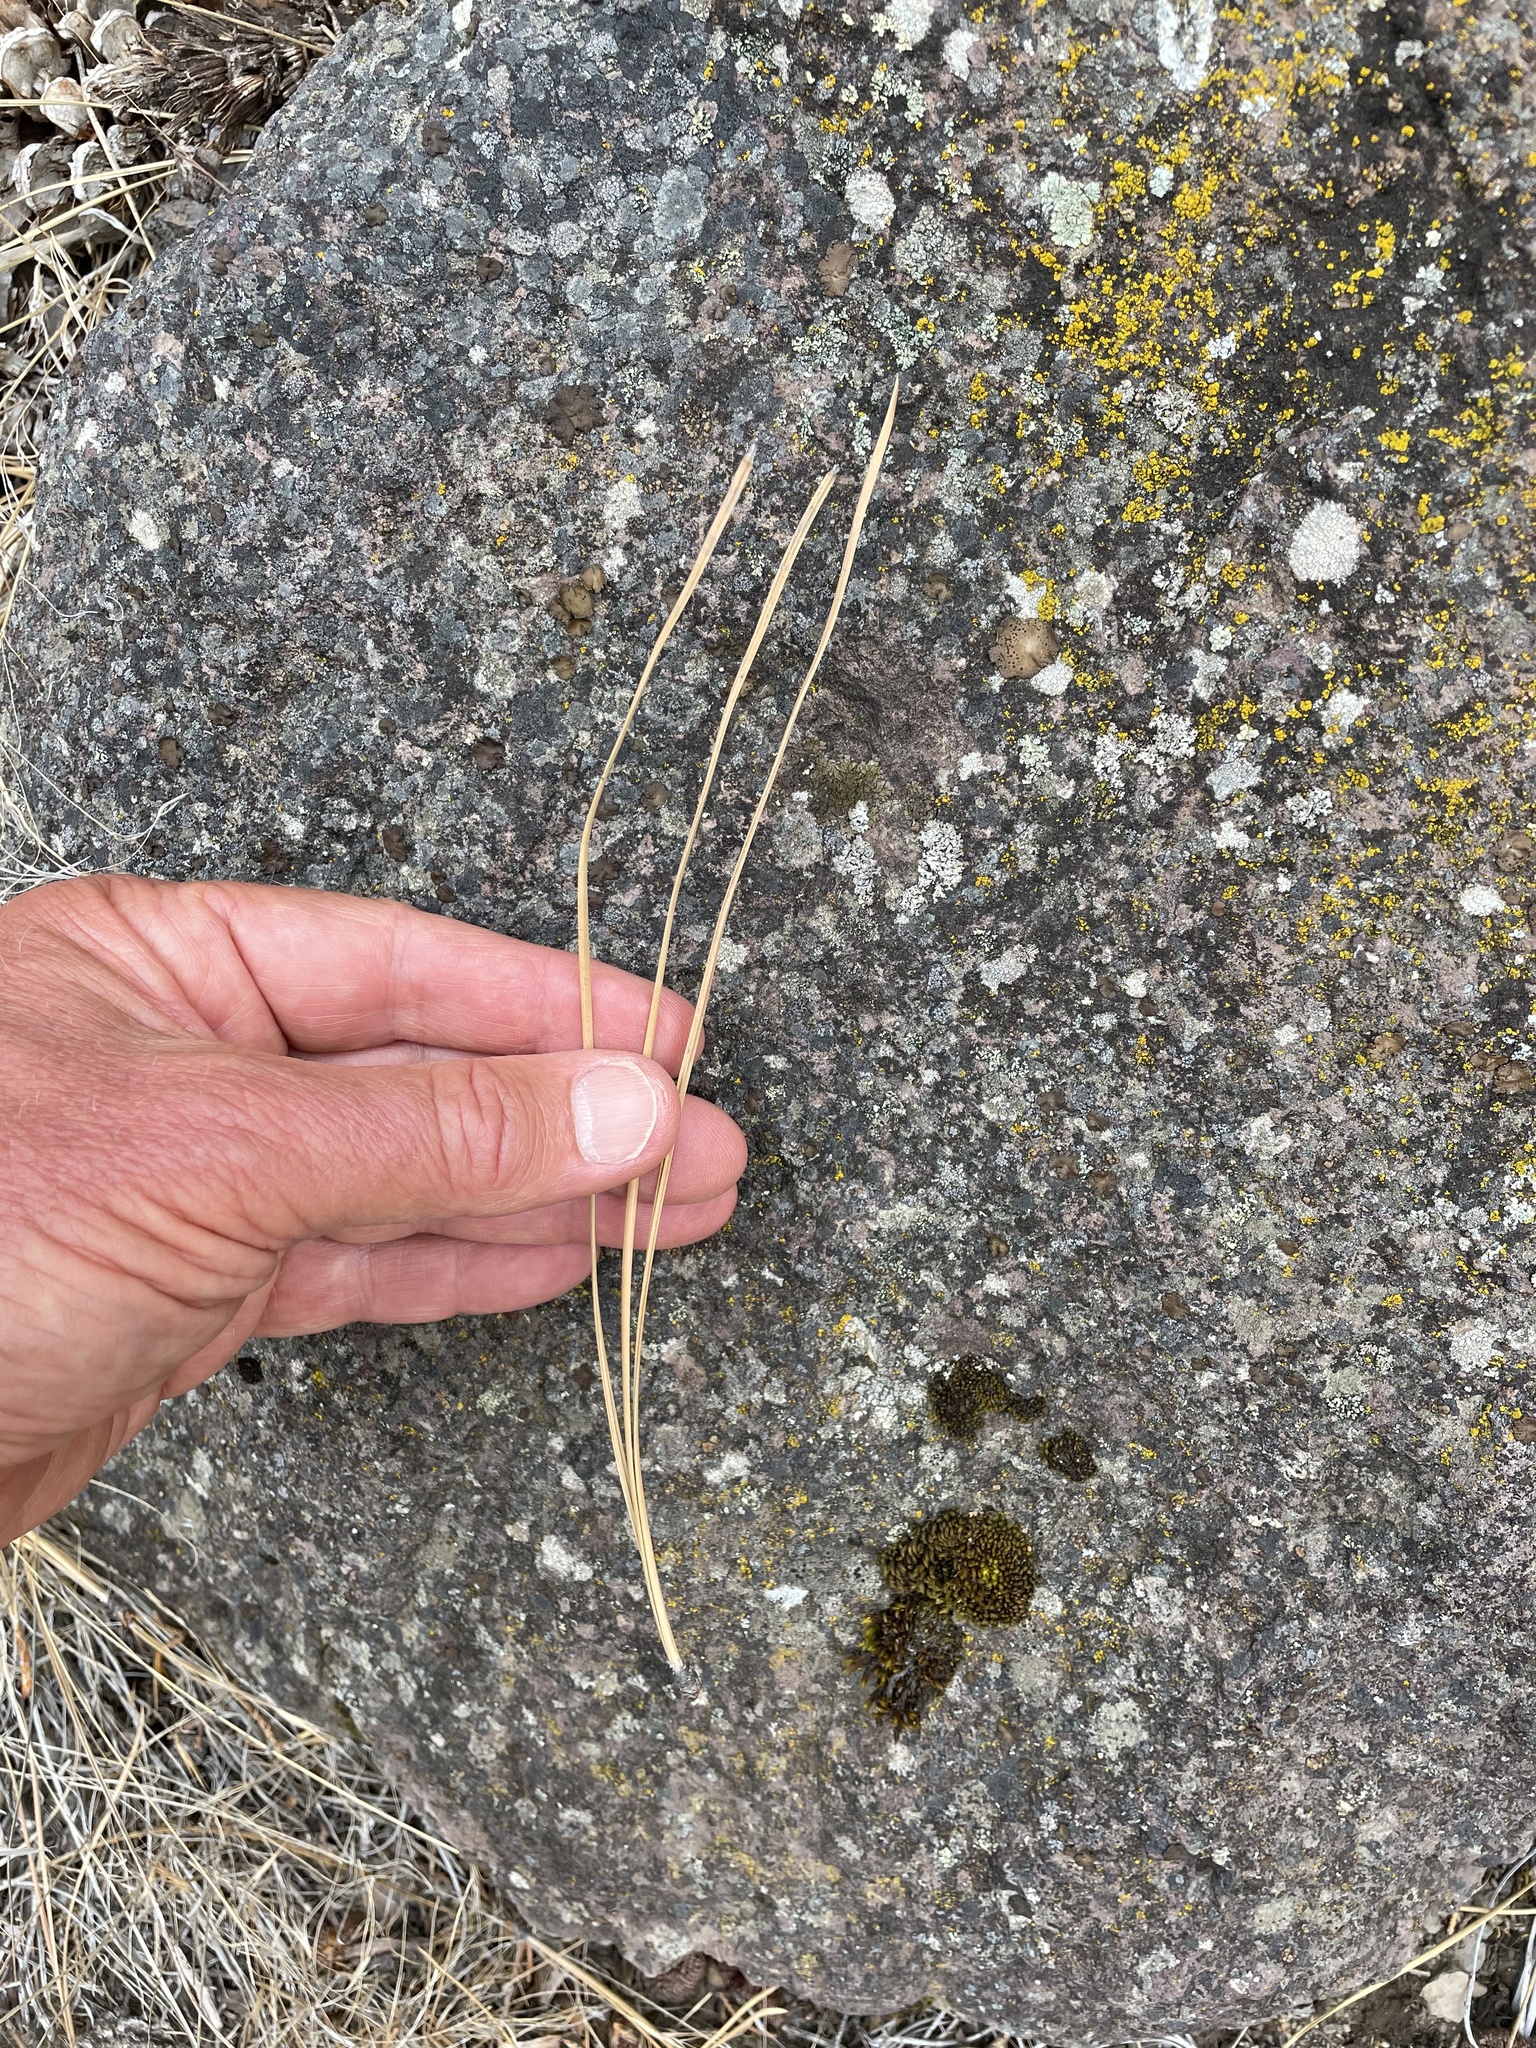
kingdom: Plantae
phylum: Tracheophyta
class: Pinopsida
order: Pinales
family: Pinaceae
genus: Pinus
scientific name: Pinus ponderosa
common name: Western yellow-pine
